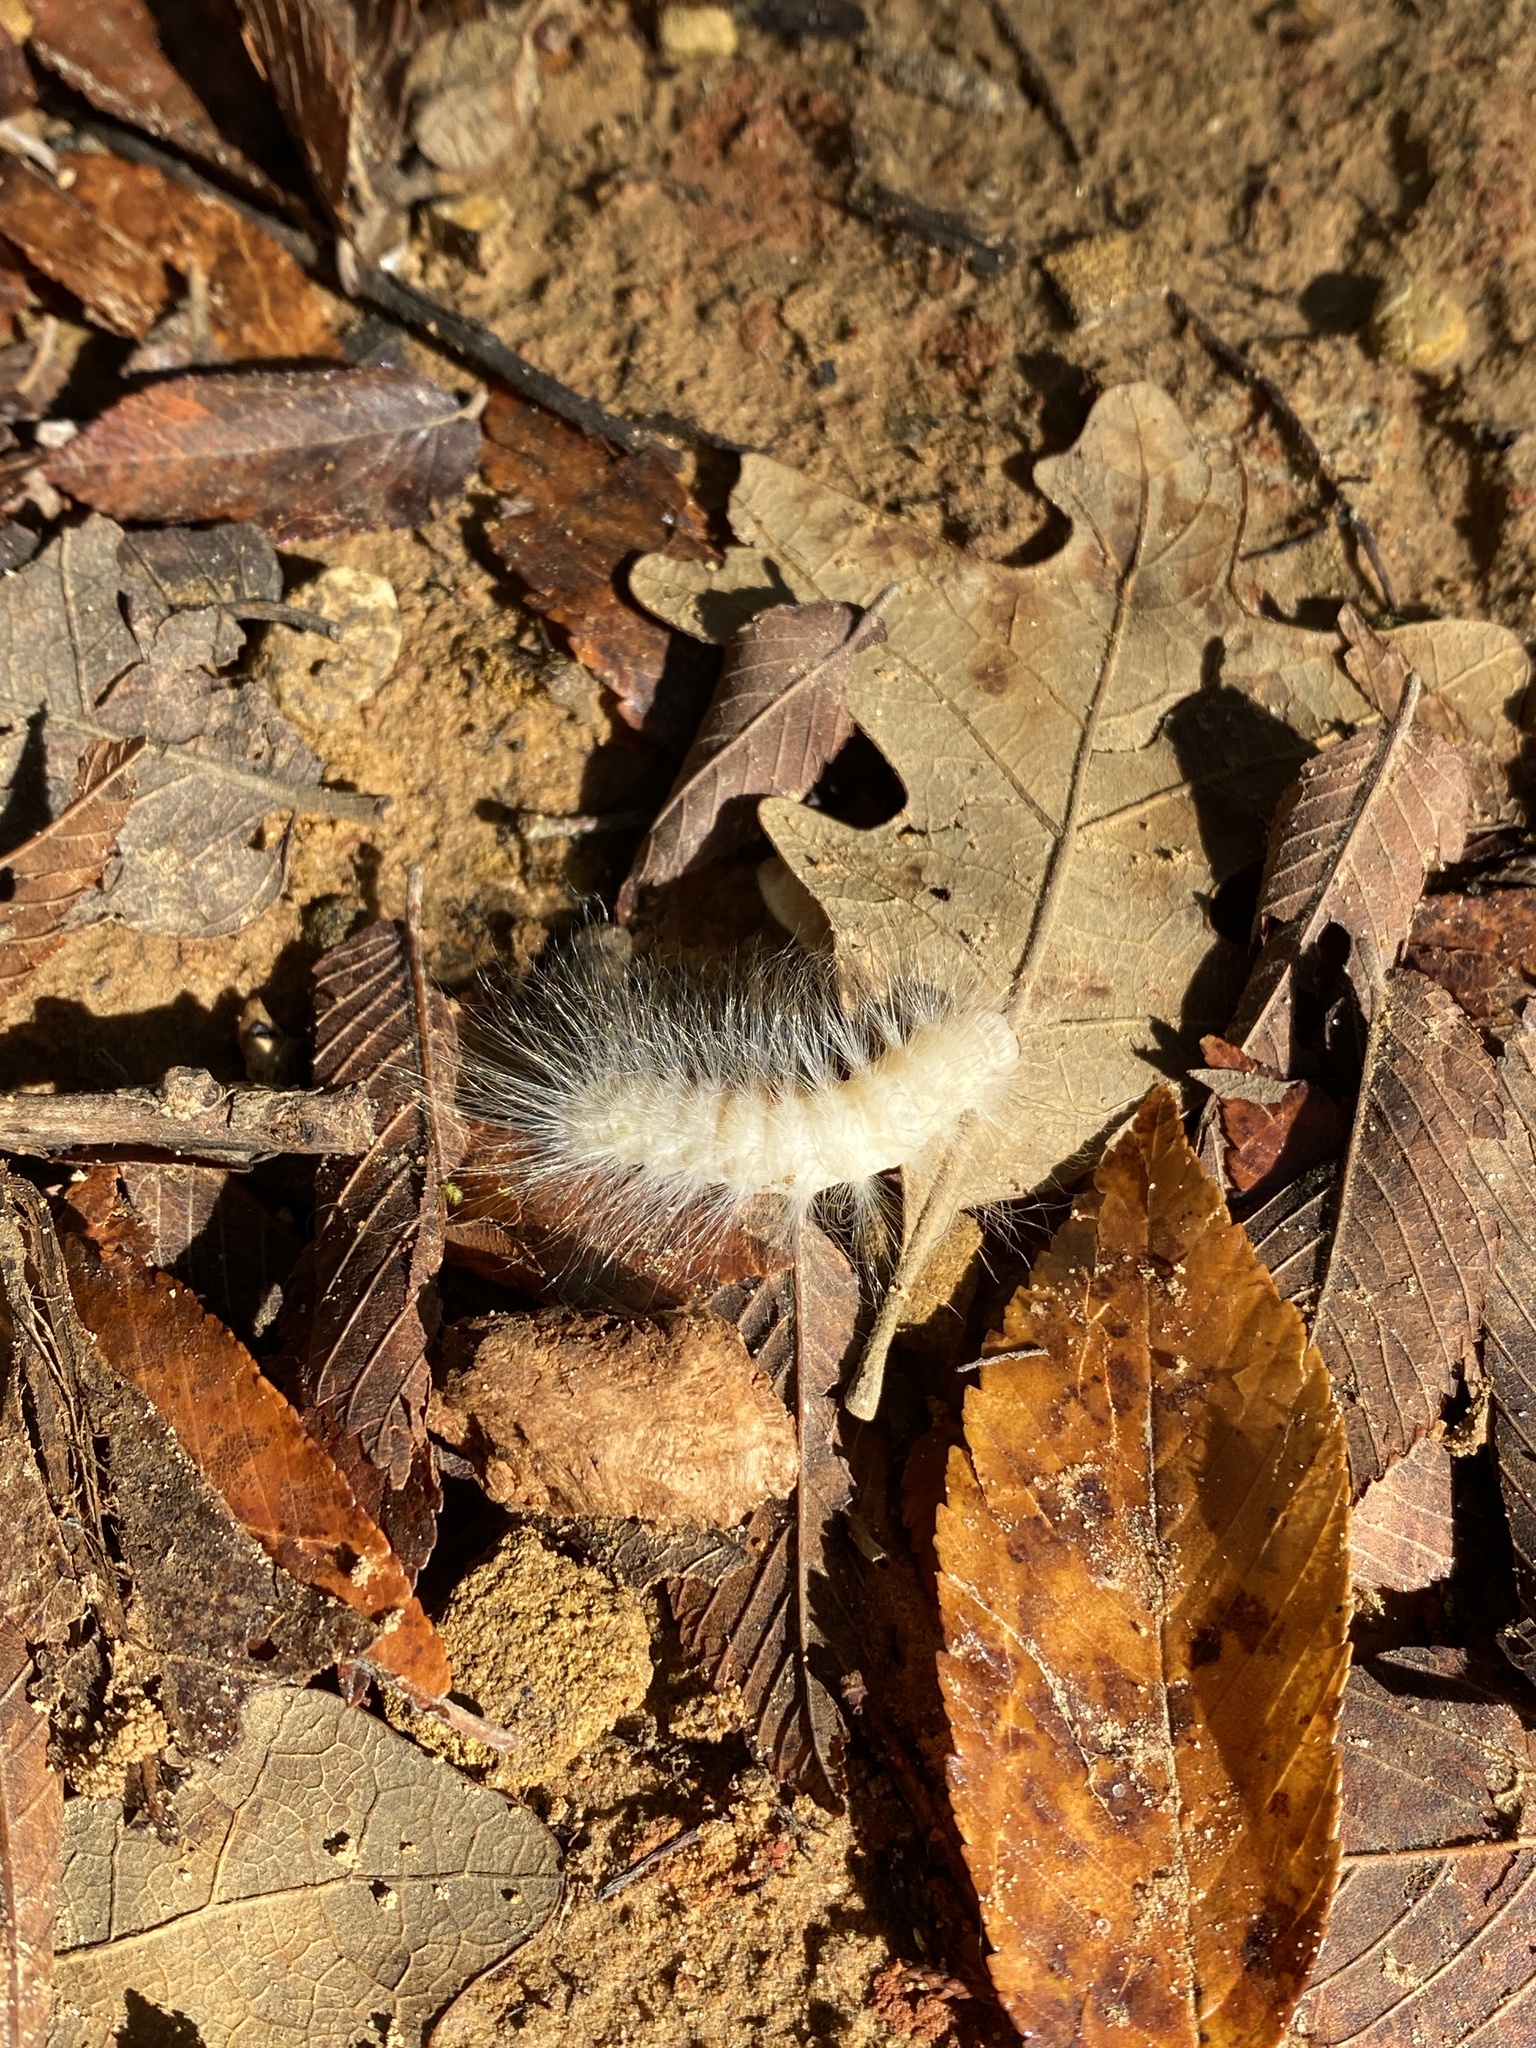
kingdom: Animalia
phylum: Arthropoda
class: Insecta
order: Lepidoptera
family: Noctuidae
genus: Charadra
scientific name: Charadra deridens
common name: Marbled tuffet
